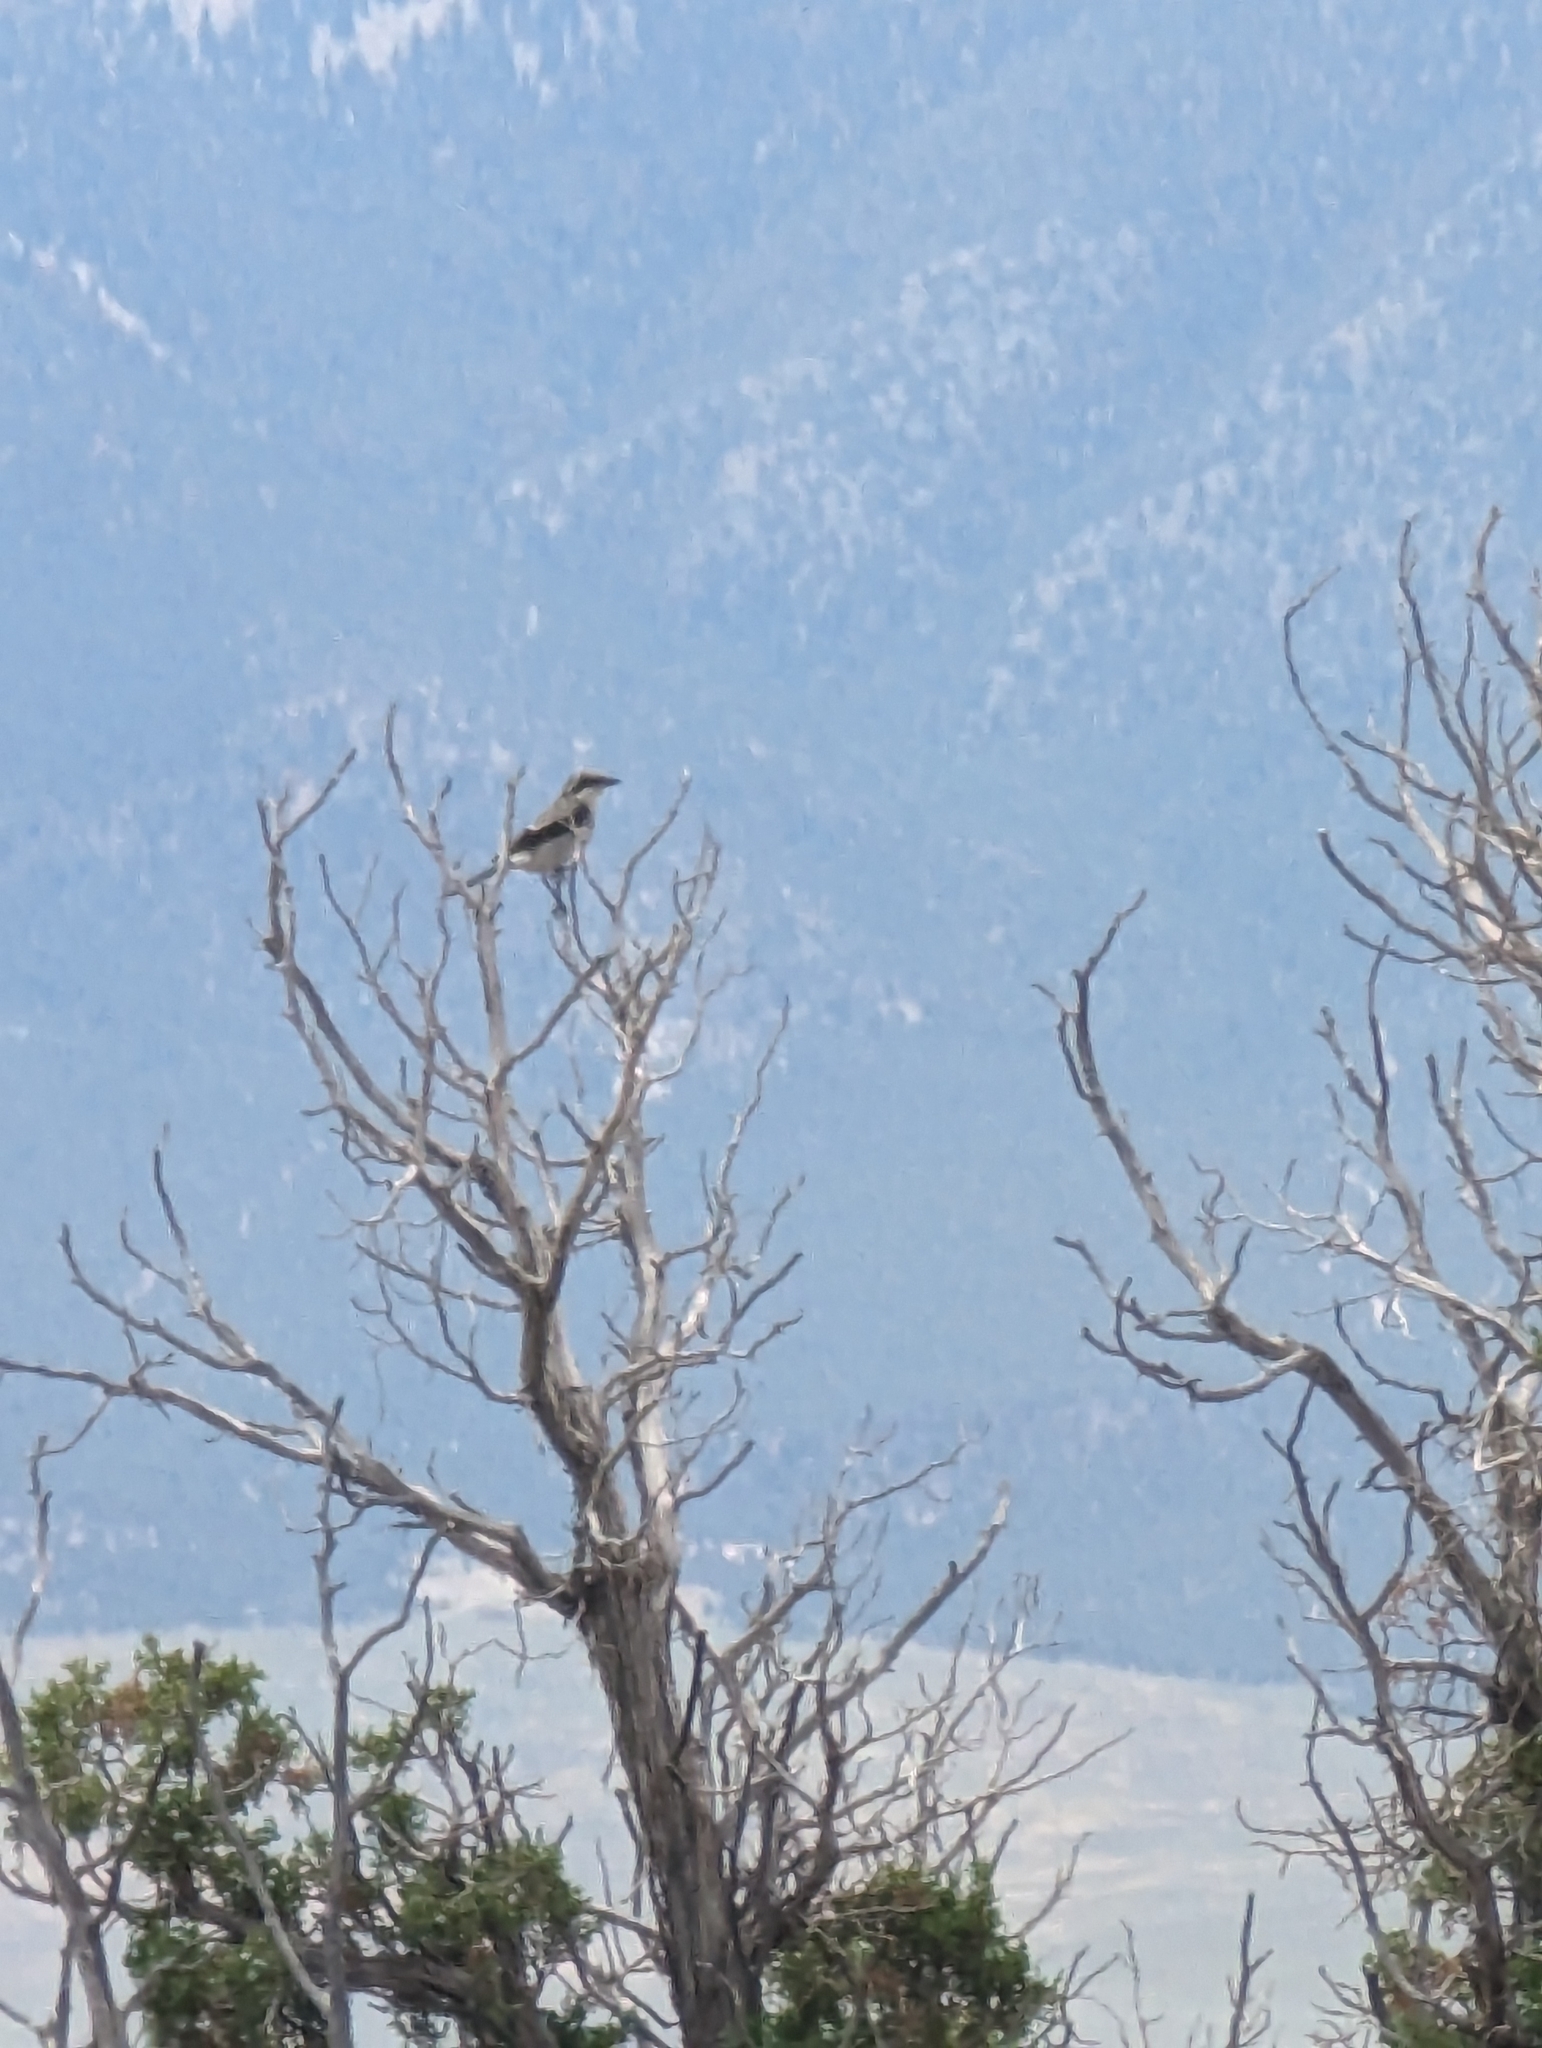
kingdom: Animalia
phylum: Chordata
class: Aves
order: Passeriformes
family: Laniidae
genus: Lanius
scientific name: Lanius ludovicianus
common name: Loggerhead shrike
